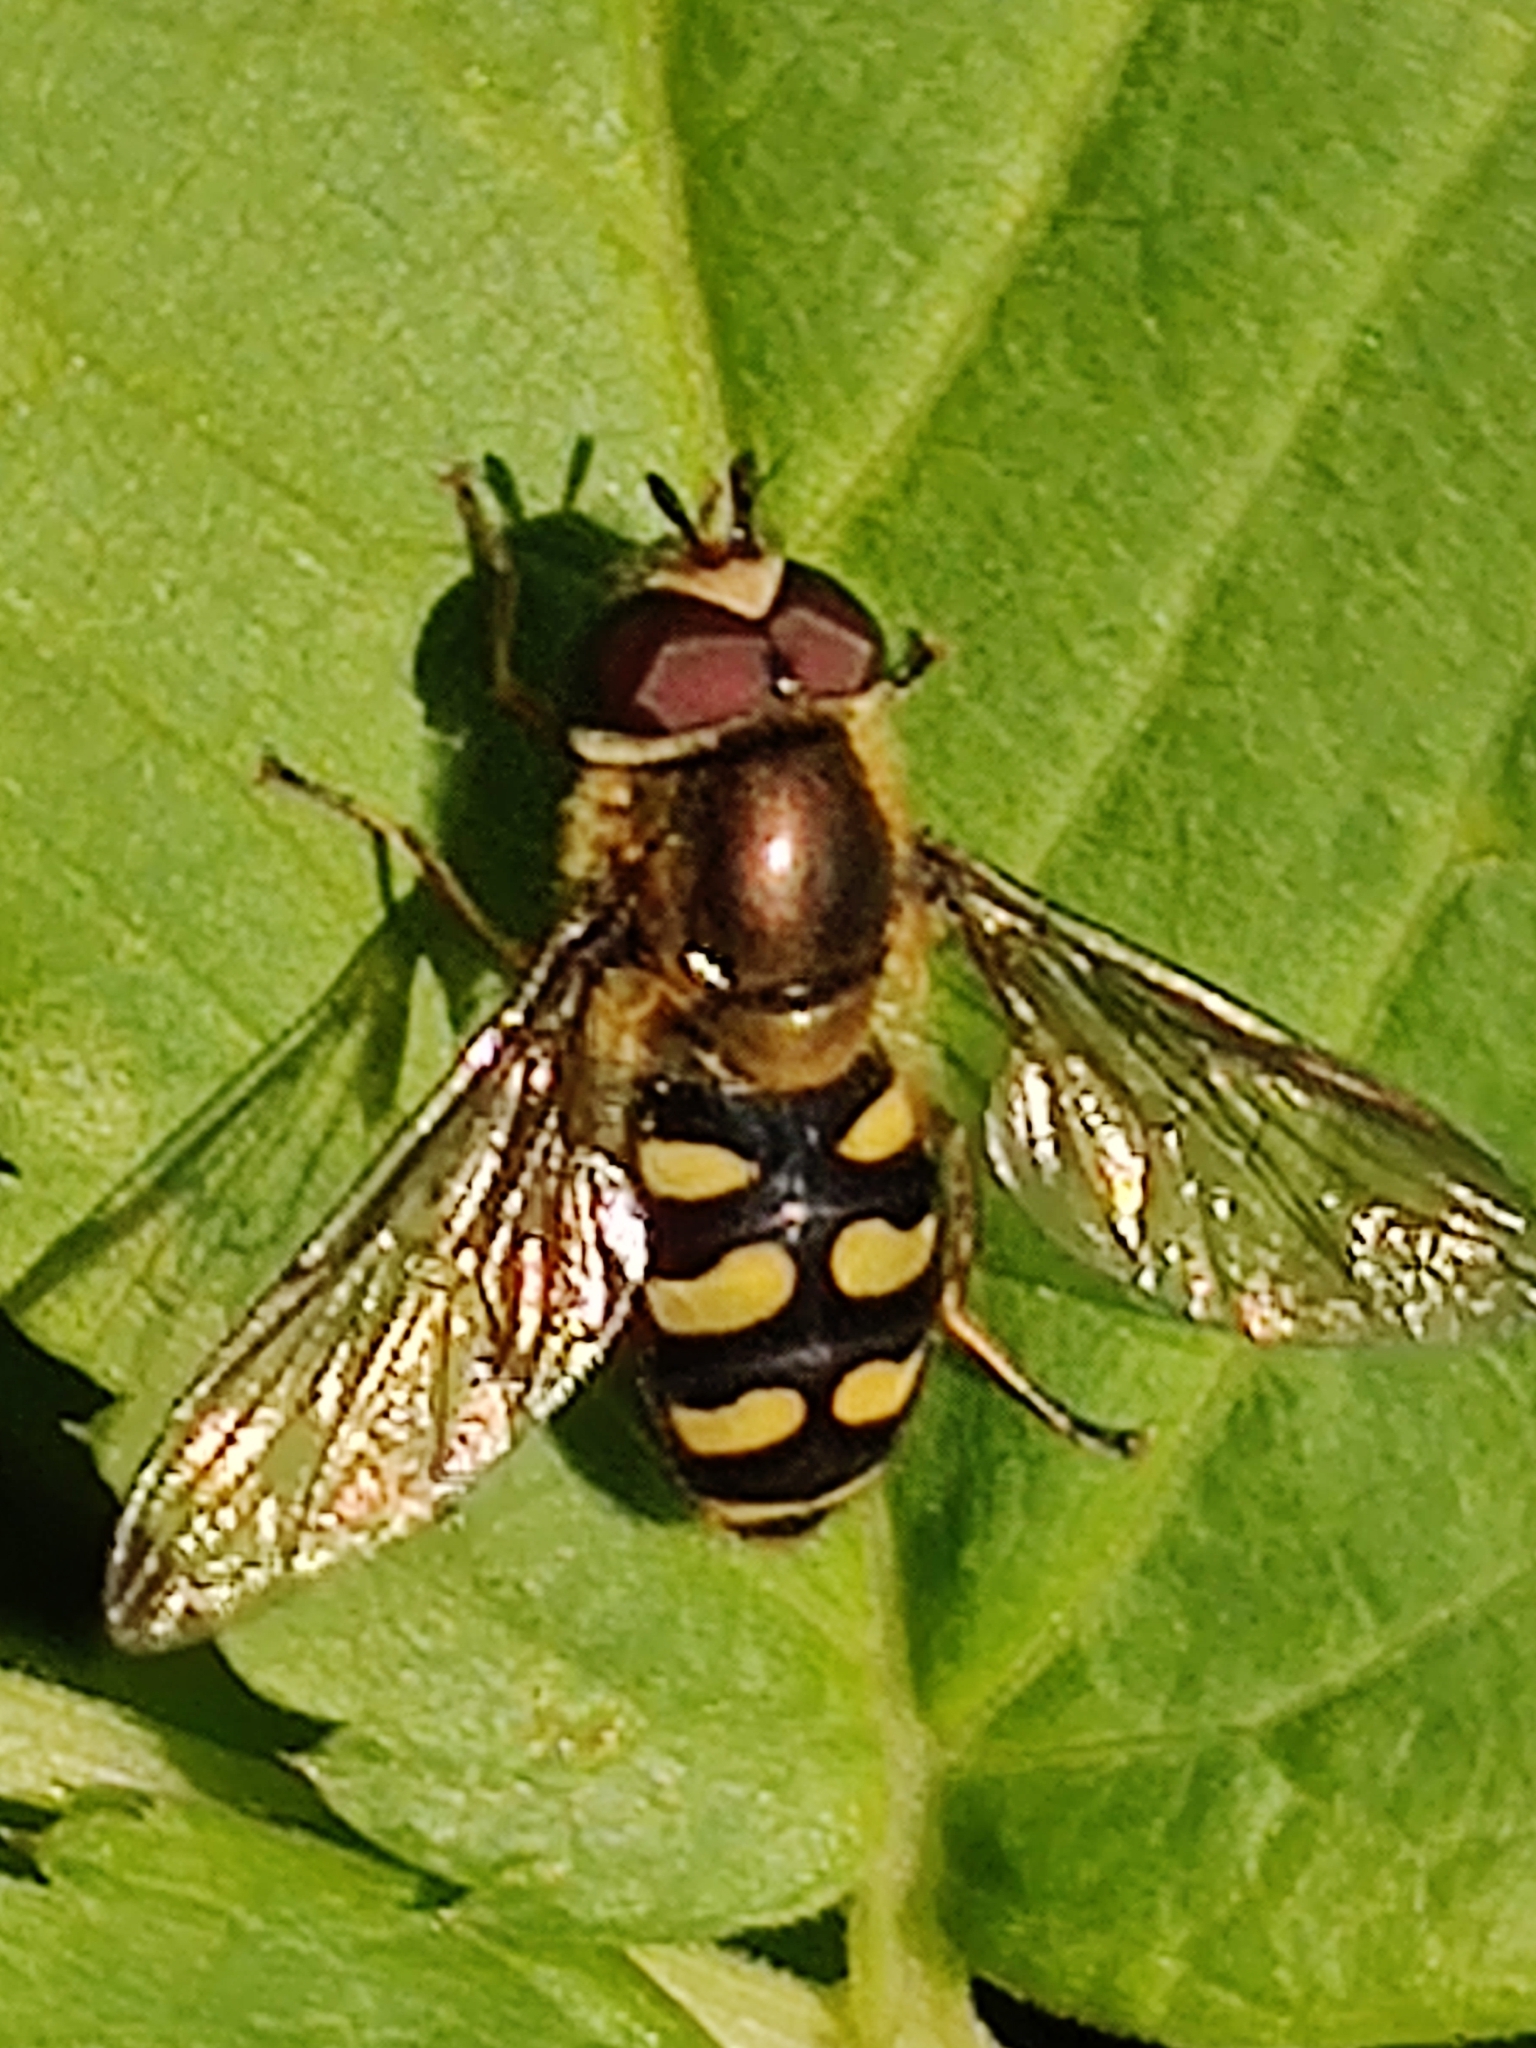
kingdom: Animalia
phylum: Arthropoda
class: Insecta
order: Diptera
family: Syrphidae
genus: Eupeodes
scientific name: Eupeodes
